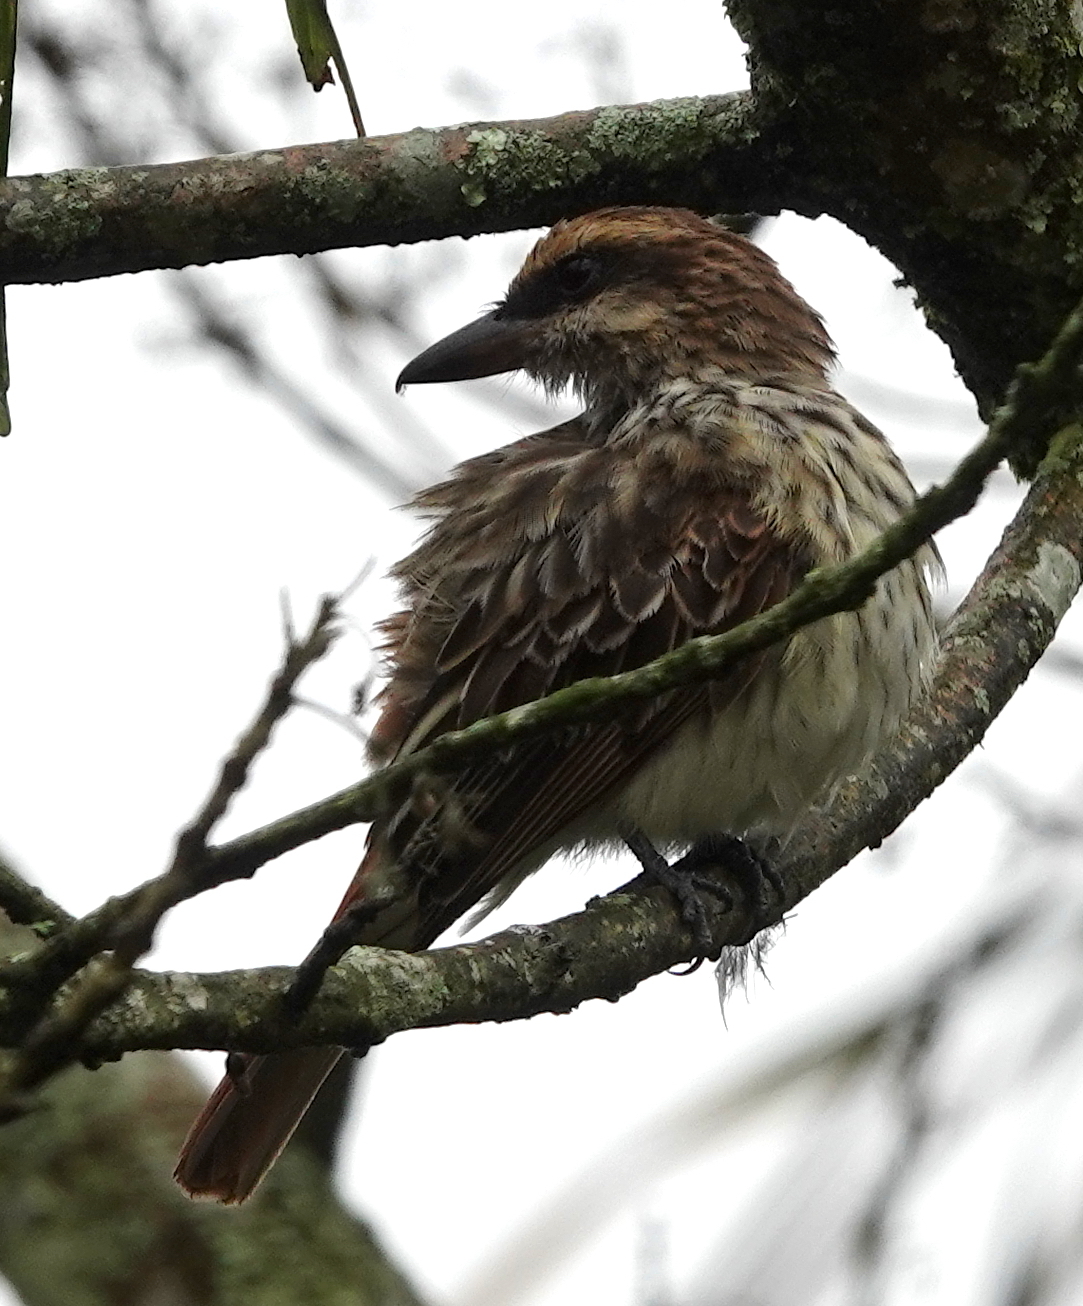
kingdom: Animalia
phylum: Chordata
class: Aves
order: Passeriformes
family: Tyrannidae
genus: Myiodynastes
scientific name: Myiodynastes maculatus
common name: Streaked flycatcher
